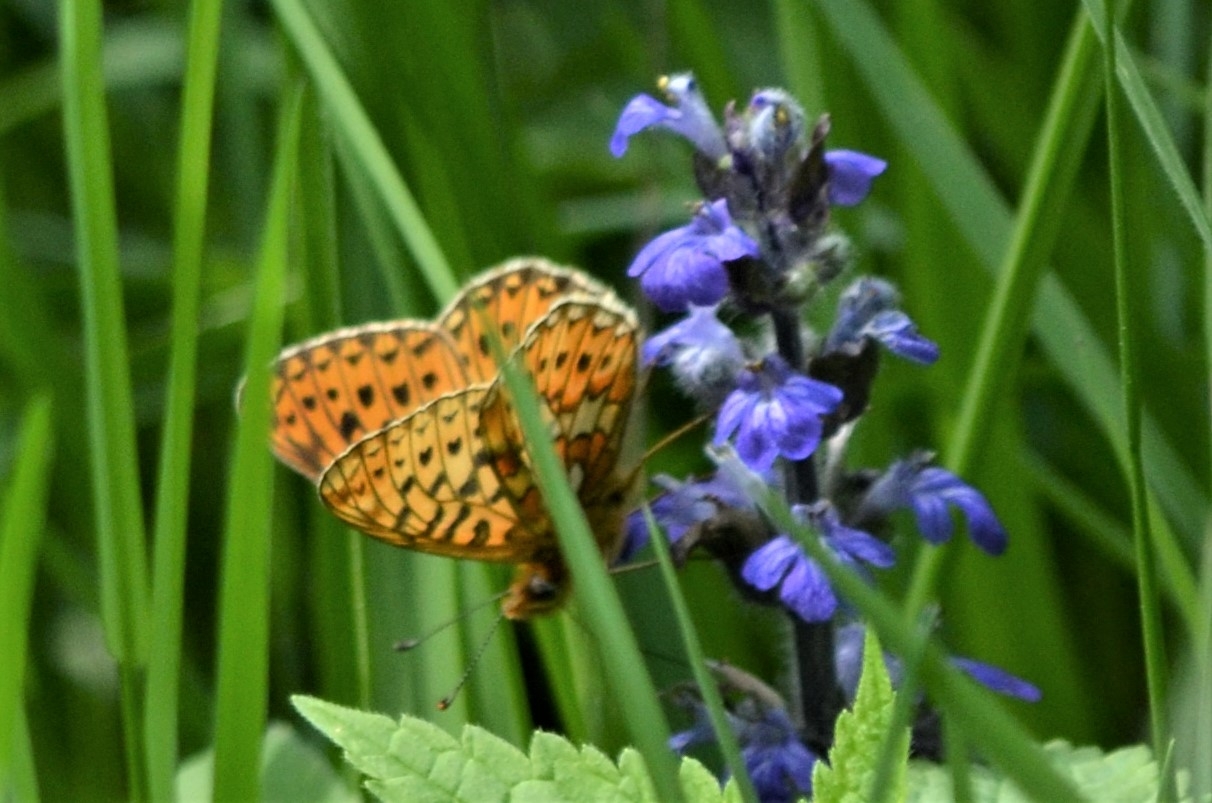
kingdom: Animalia
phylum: Arthropoda
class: Insecta
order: Lepidoptera
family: Nymphalidae
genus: Clossiana
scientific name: Clossiana euphrosyne
